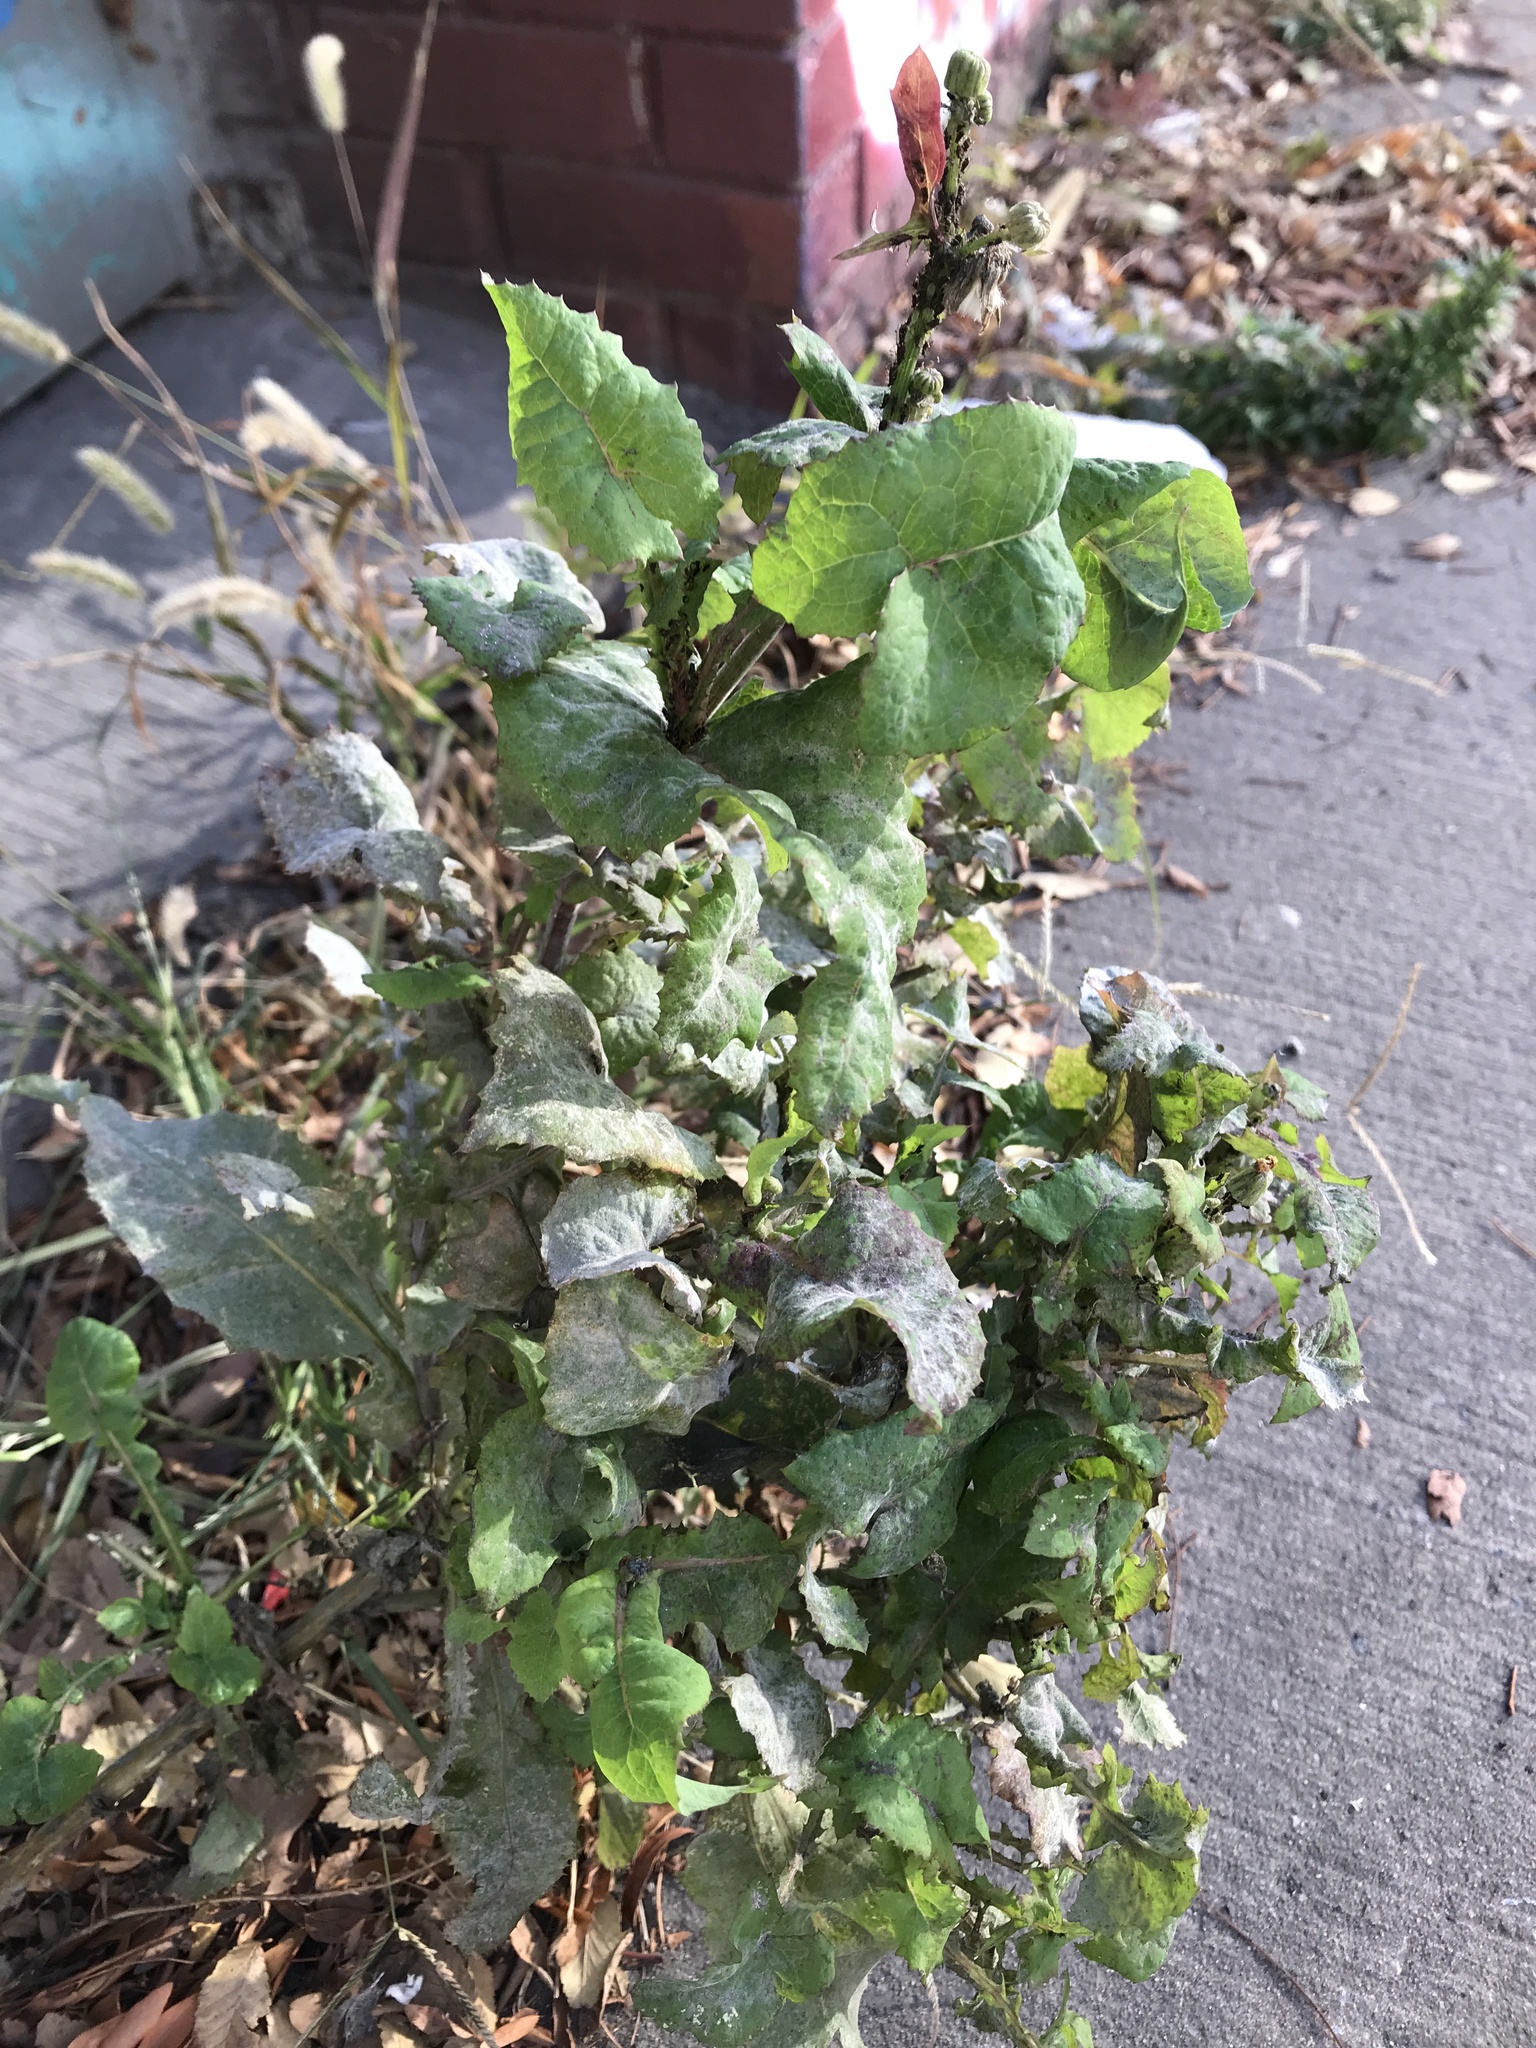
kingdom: Plantae
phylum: Tracheophyta
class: Magnoliopsida
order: Asterales
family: Asteraceae
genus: Sonchus
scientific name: Sonchus oleraceus
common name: Common sowthistle
